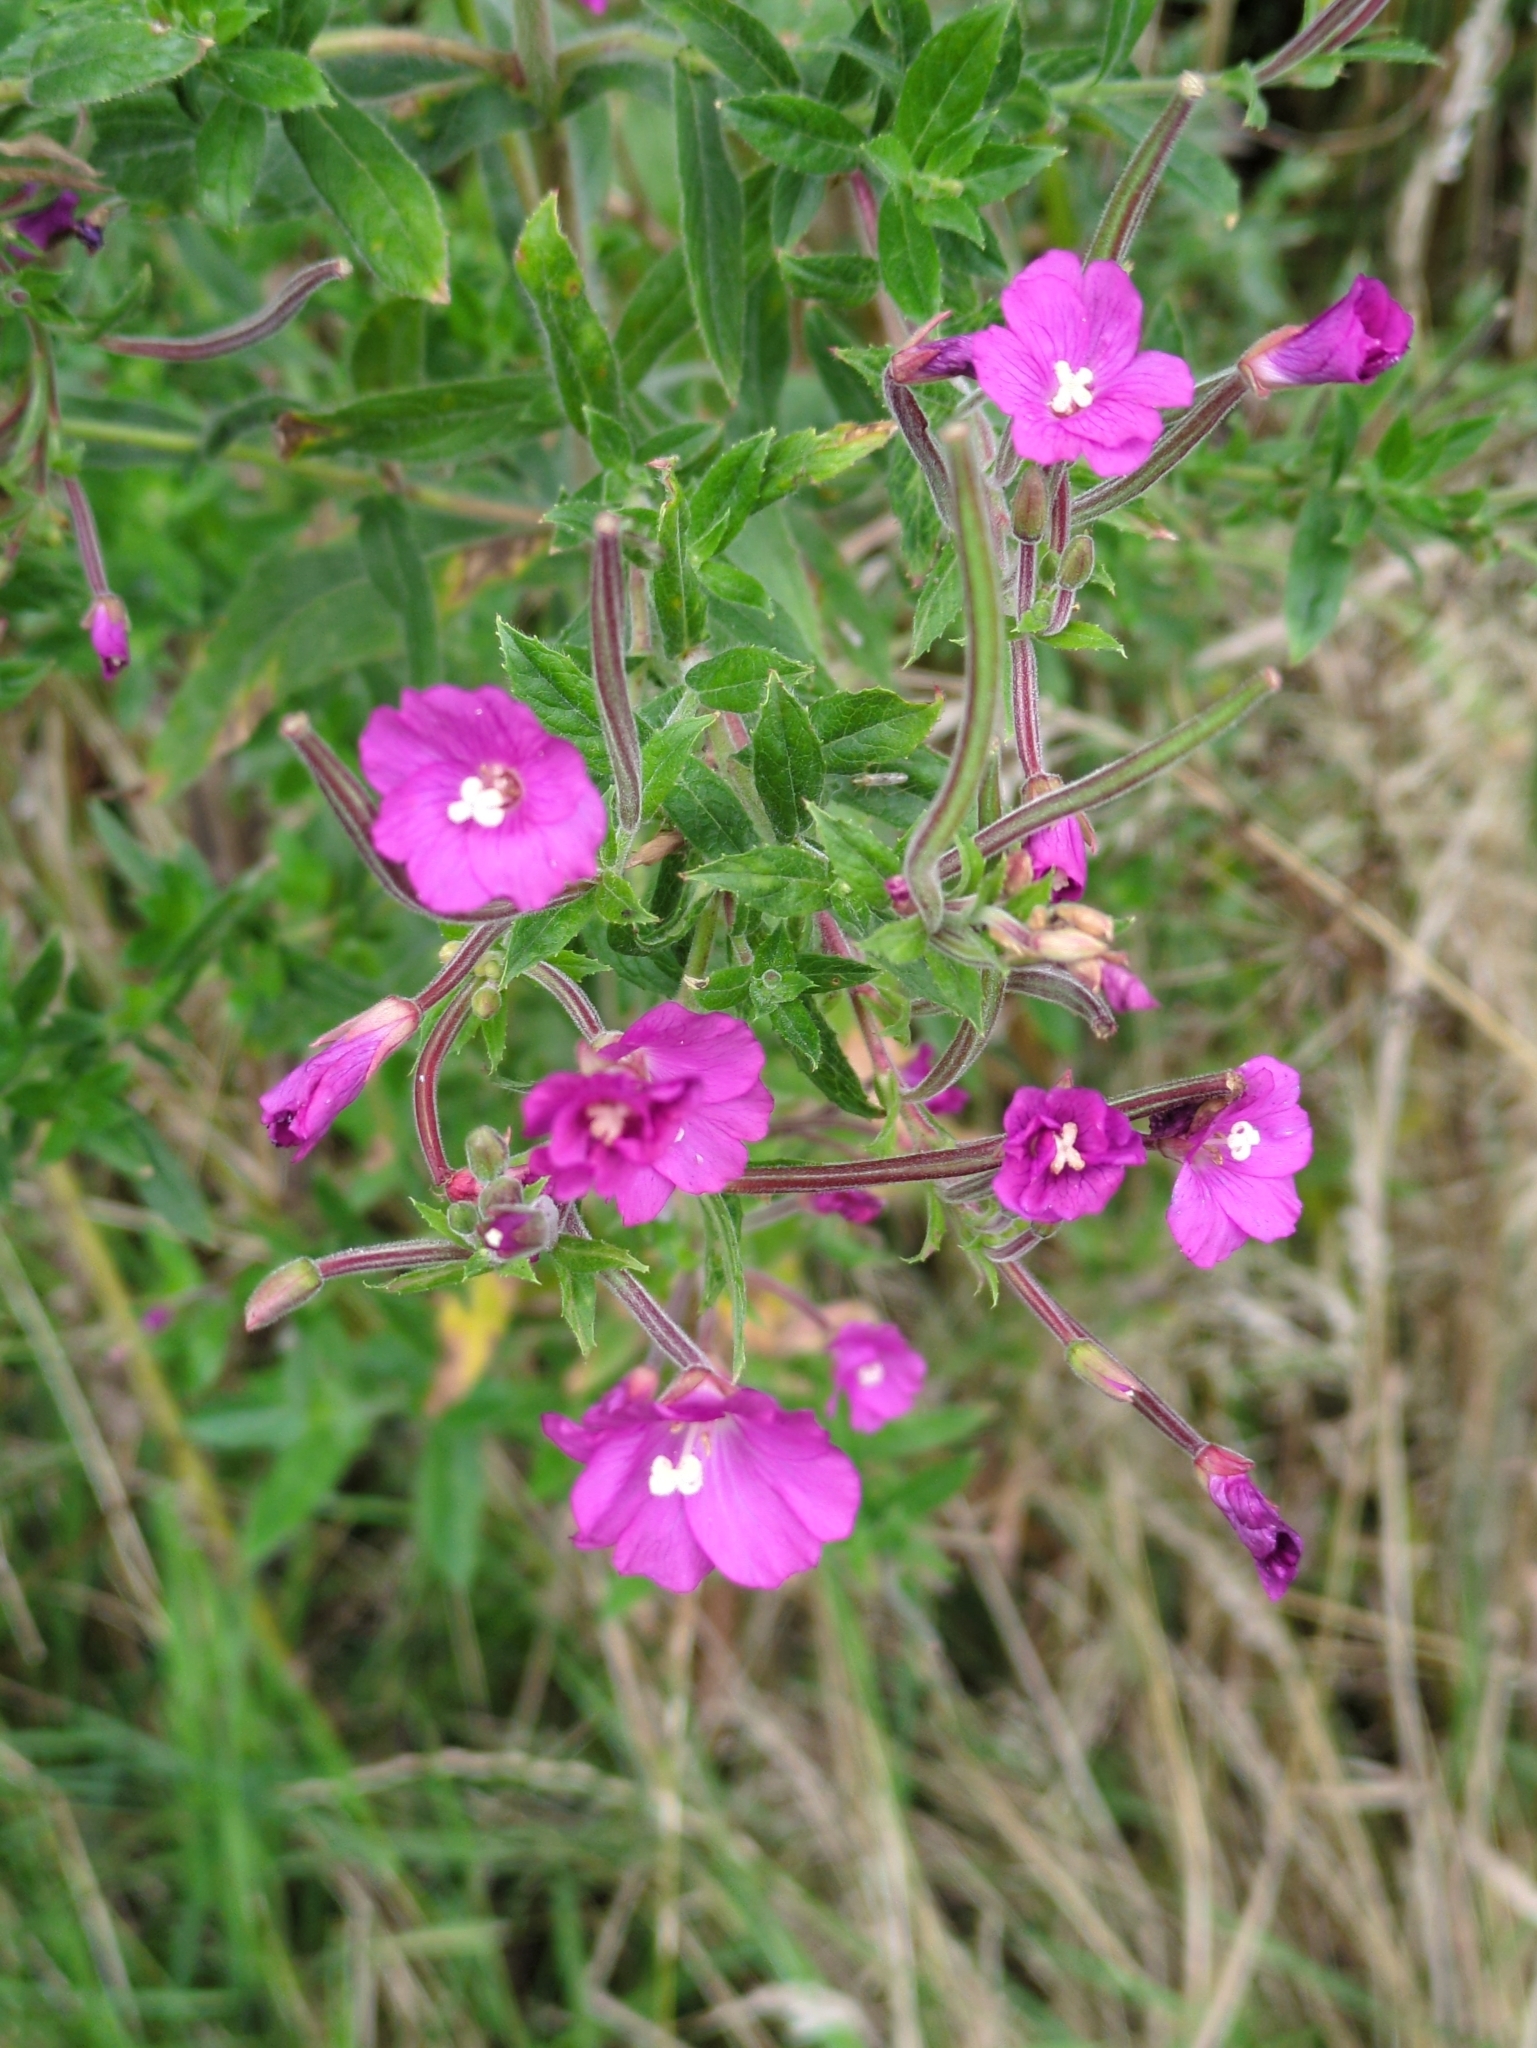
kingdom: Plantae
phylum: Tracheophyta
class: Magnoliopsida
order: Myrtales
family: Onagraceae
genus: Epilobium
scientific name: Epilobium hirsutum
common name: Great willowherb
